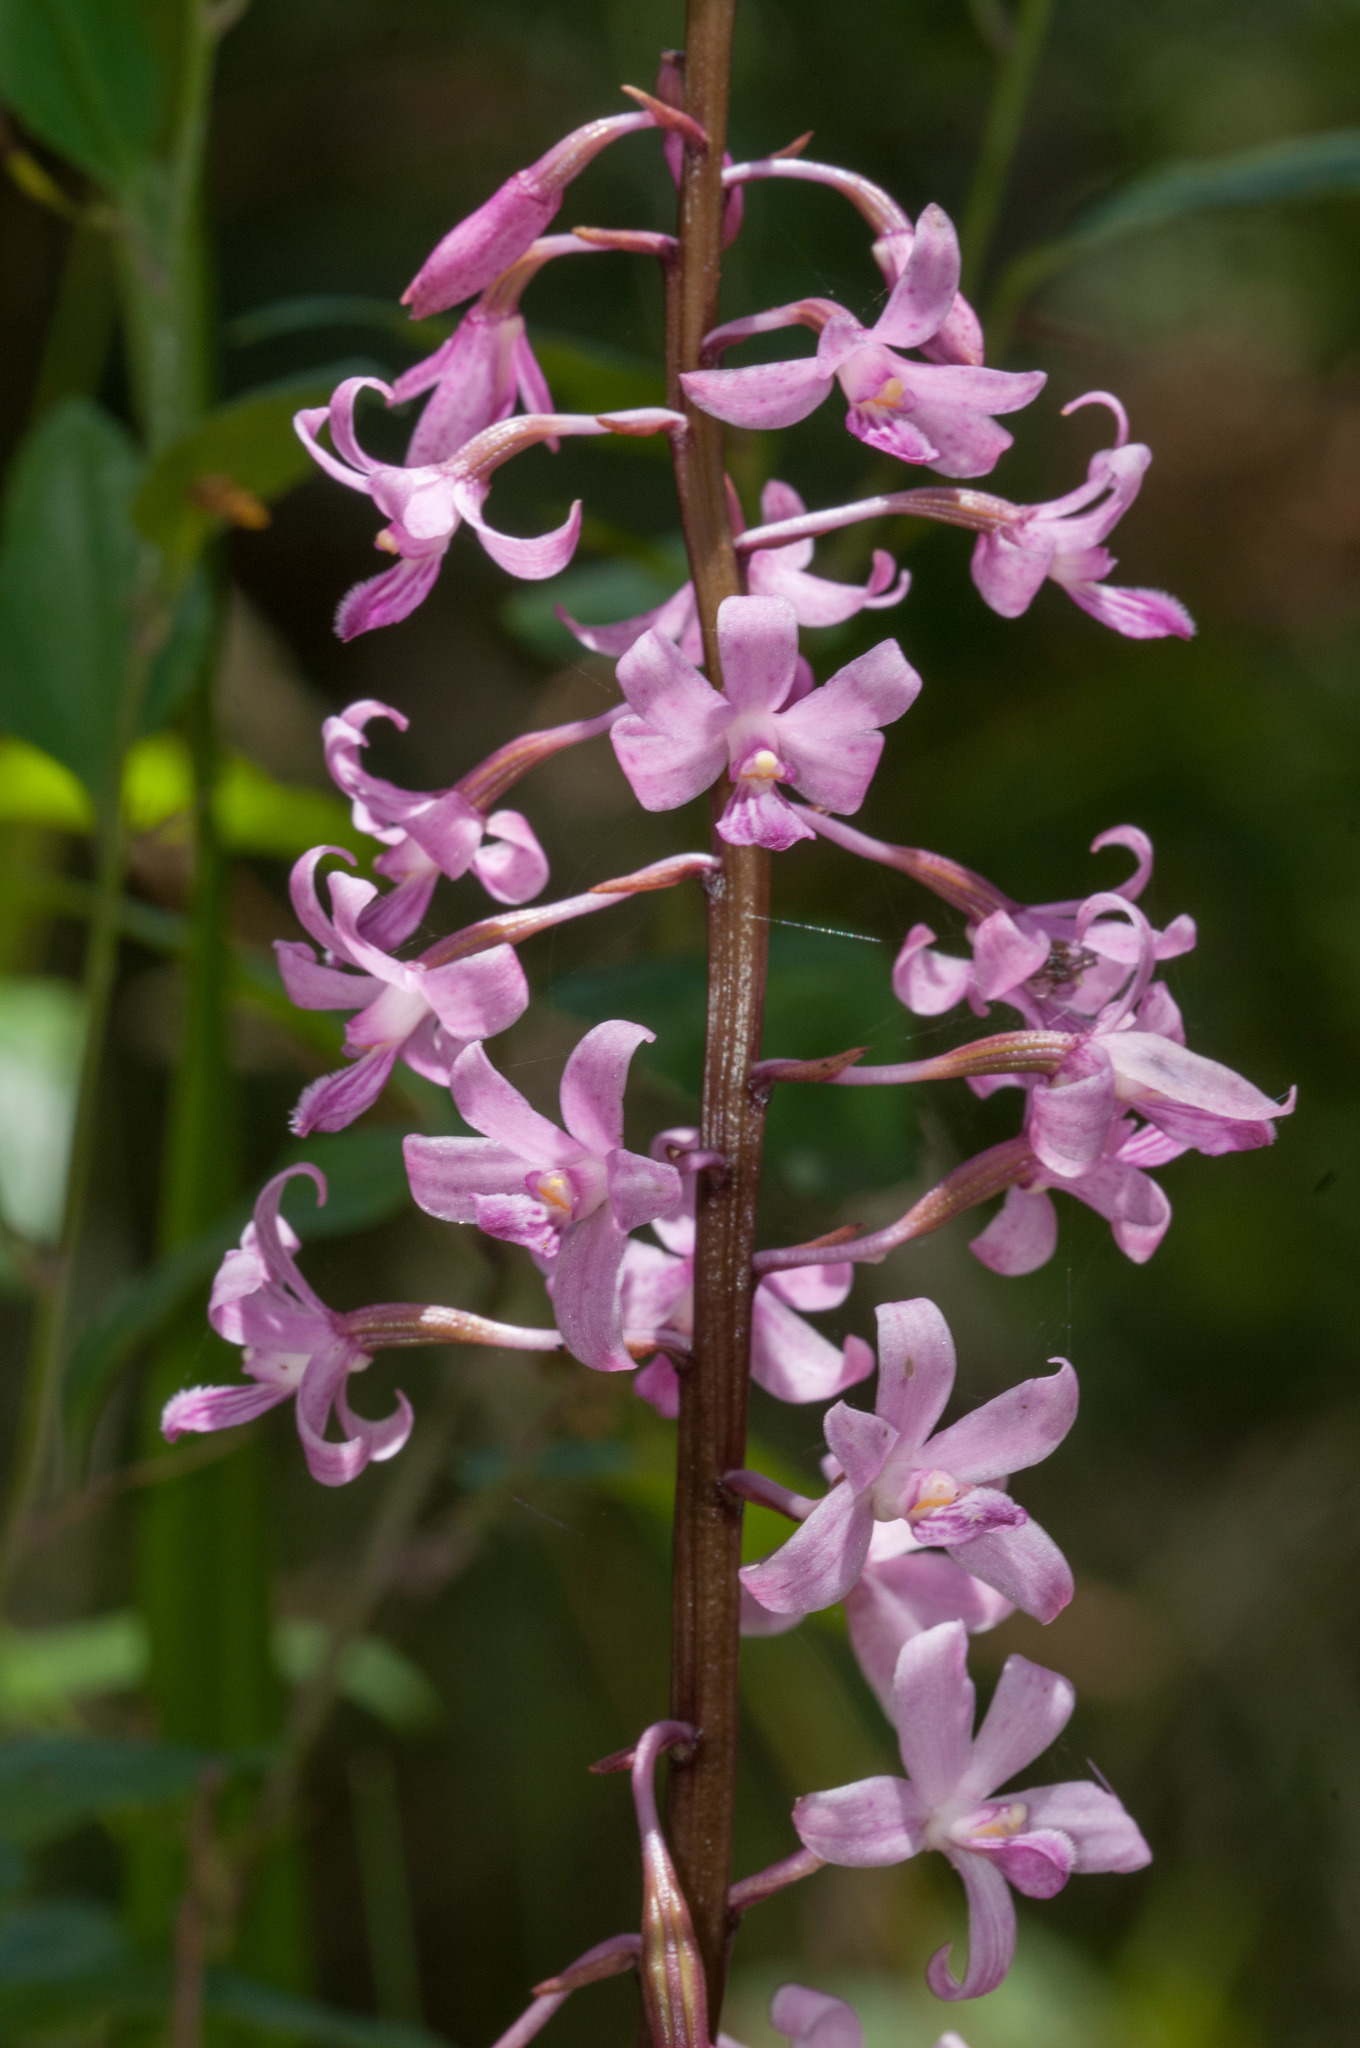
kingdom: Plantae
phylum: Tracheophyta
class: Liliopsida
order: Asparagales
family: Orchidaceae
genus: Dipodium
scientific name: Dipodium roseum
